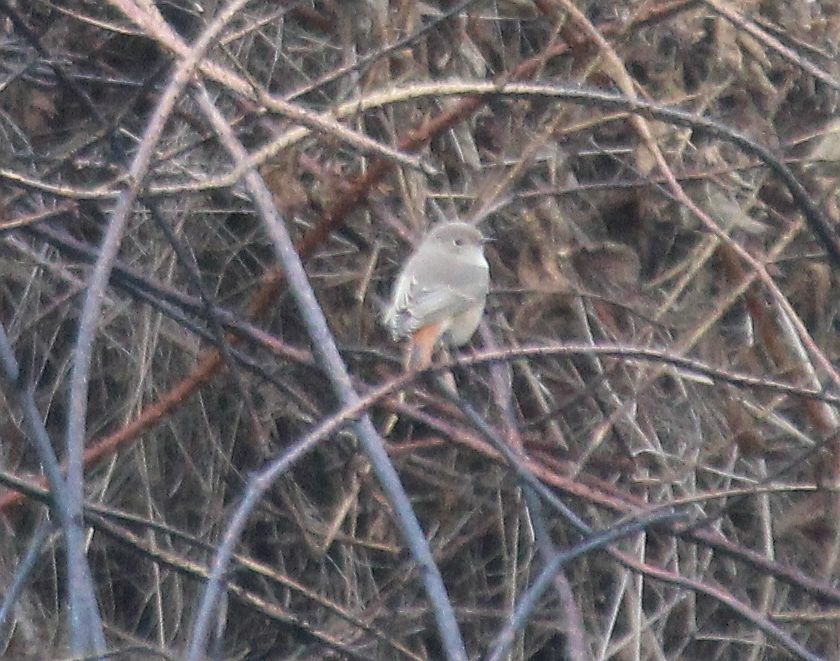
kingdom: Animalia
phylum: Chordata
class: Aves
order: Passeriformes
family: Muscicapidae
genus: Phoenicurus
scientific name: Phoenicurus phoenicurus
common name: Common redstart
